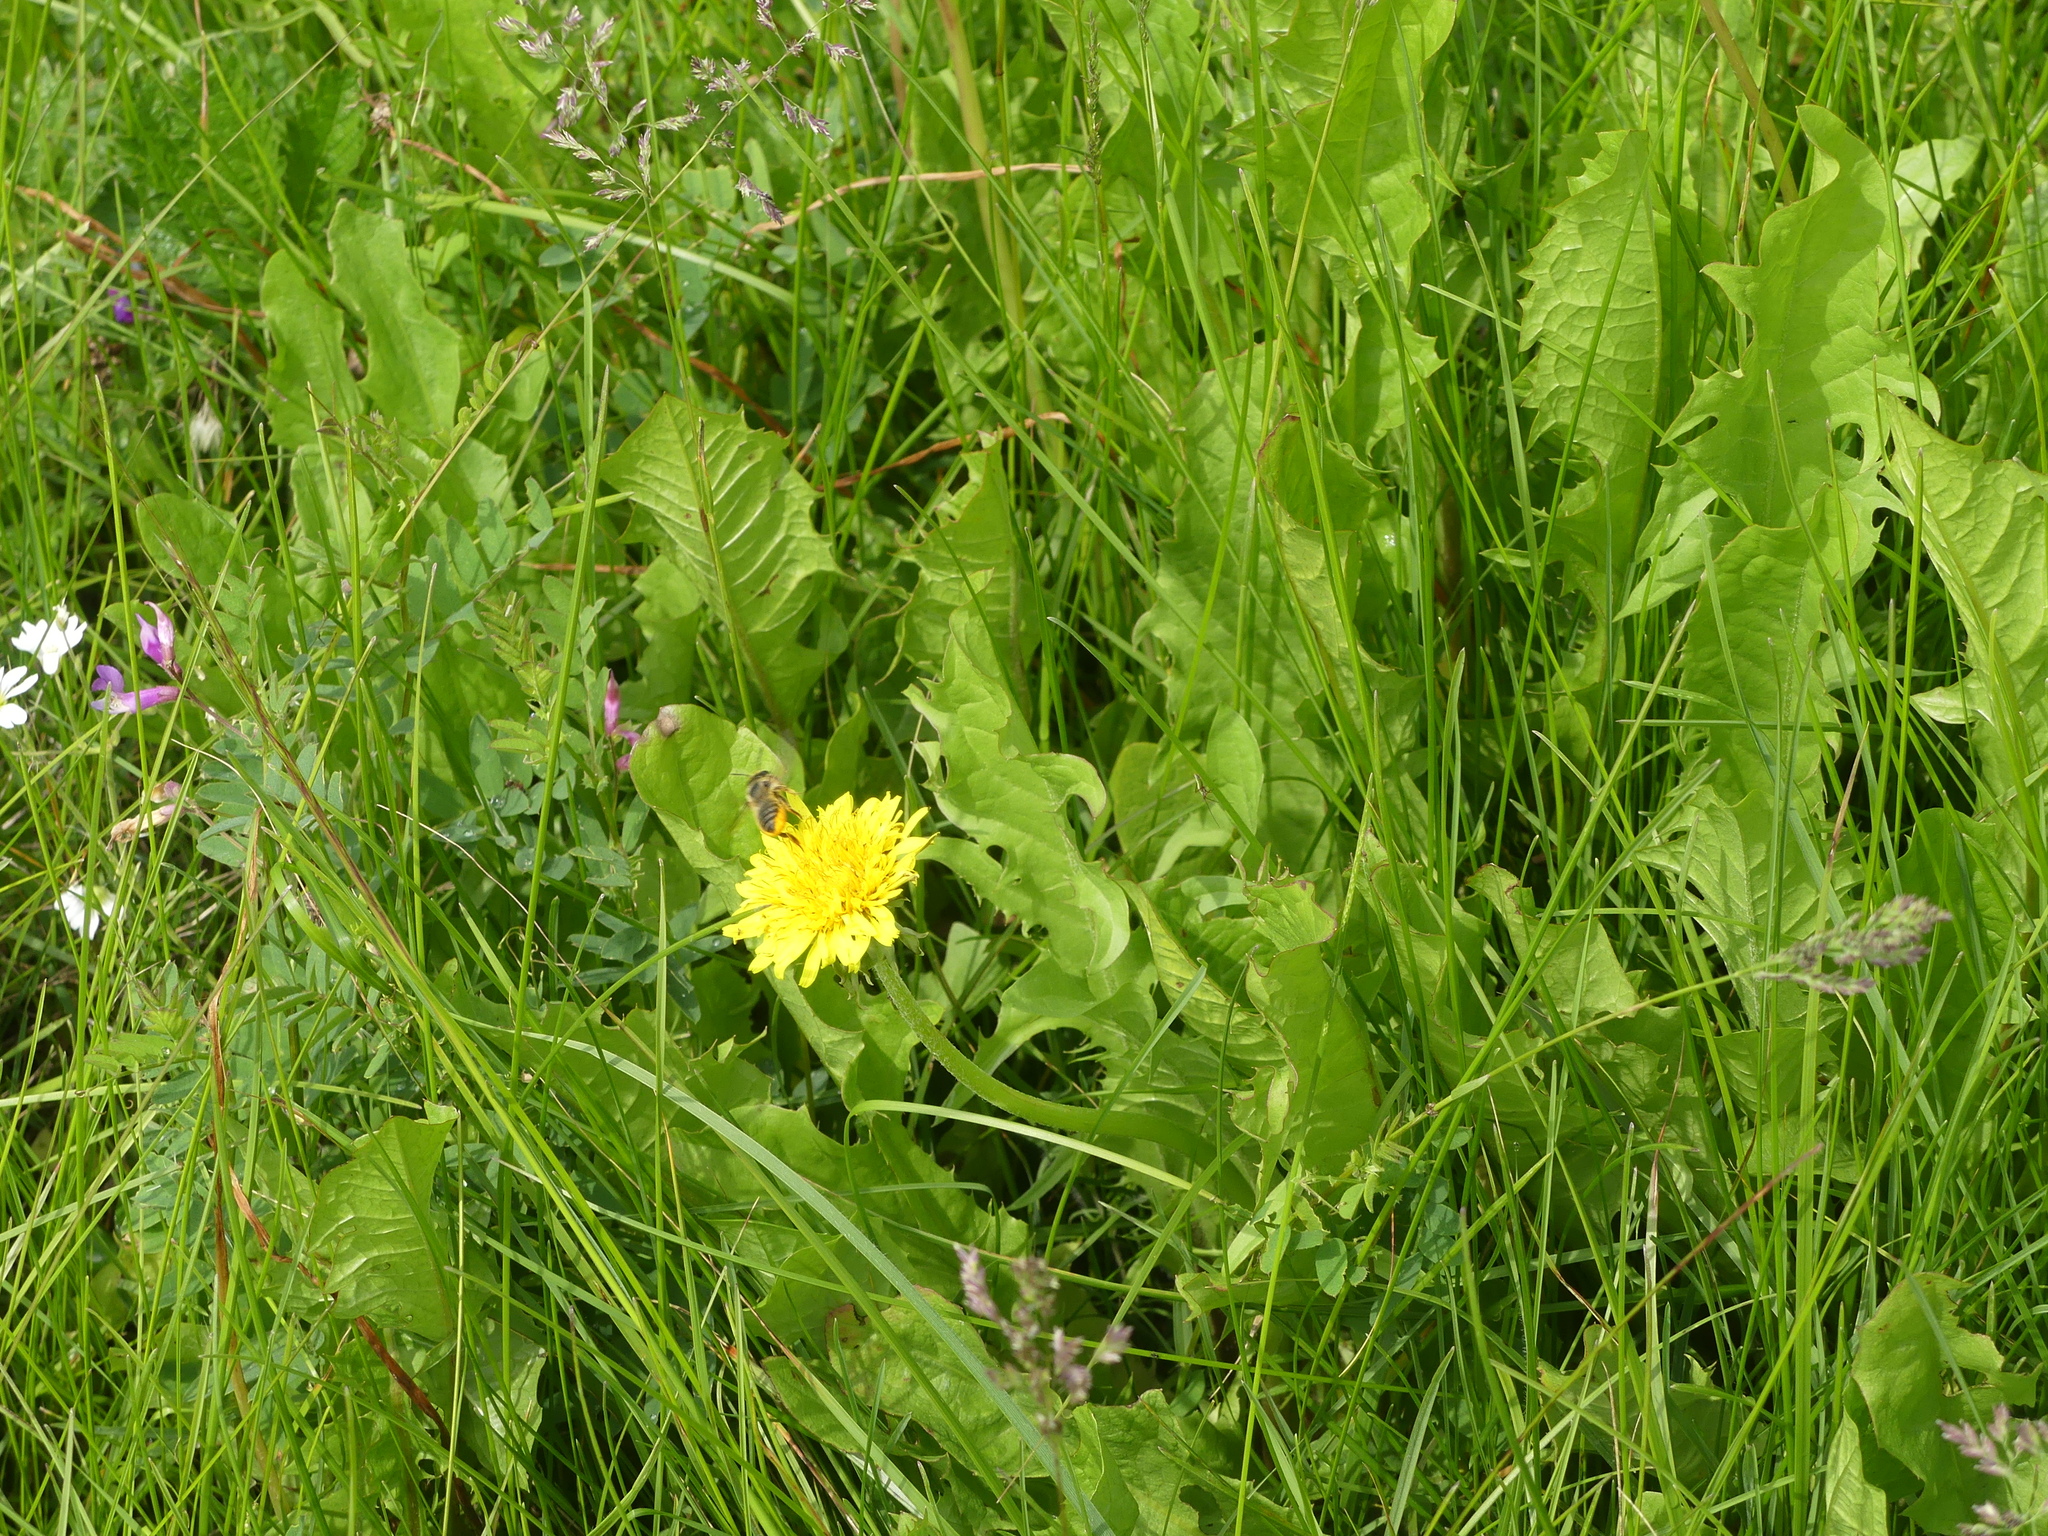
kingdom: Animalia
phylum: Arthropoda
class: Insecta
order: Hymenoptera
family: Megachilidae
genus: Megachile
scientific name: Megachile perihirta
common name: Western leafcutter
